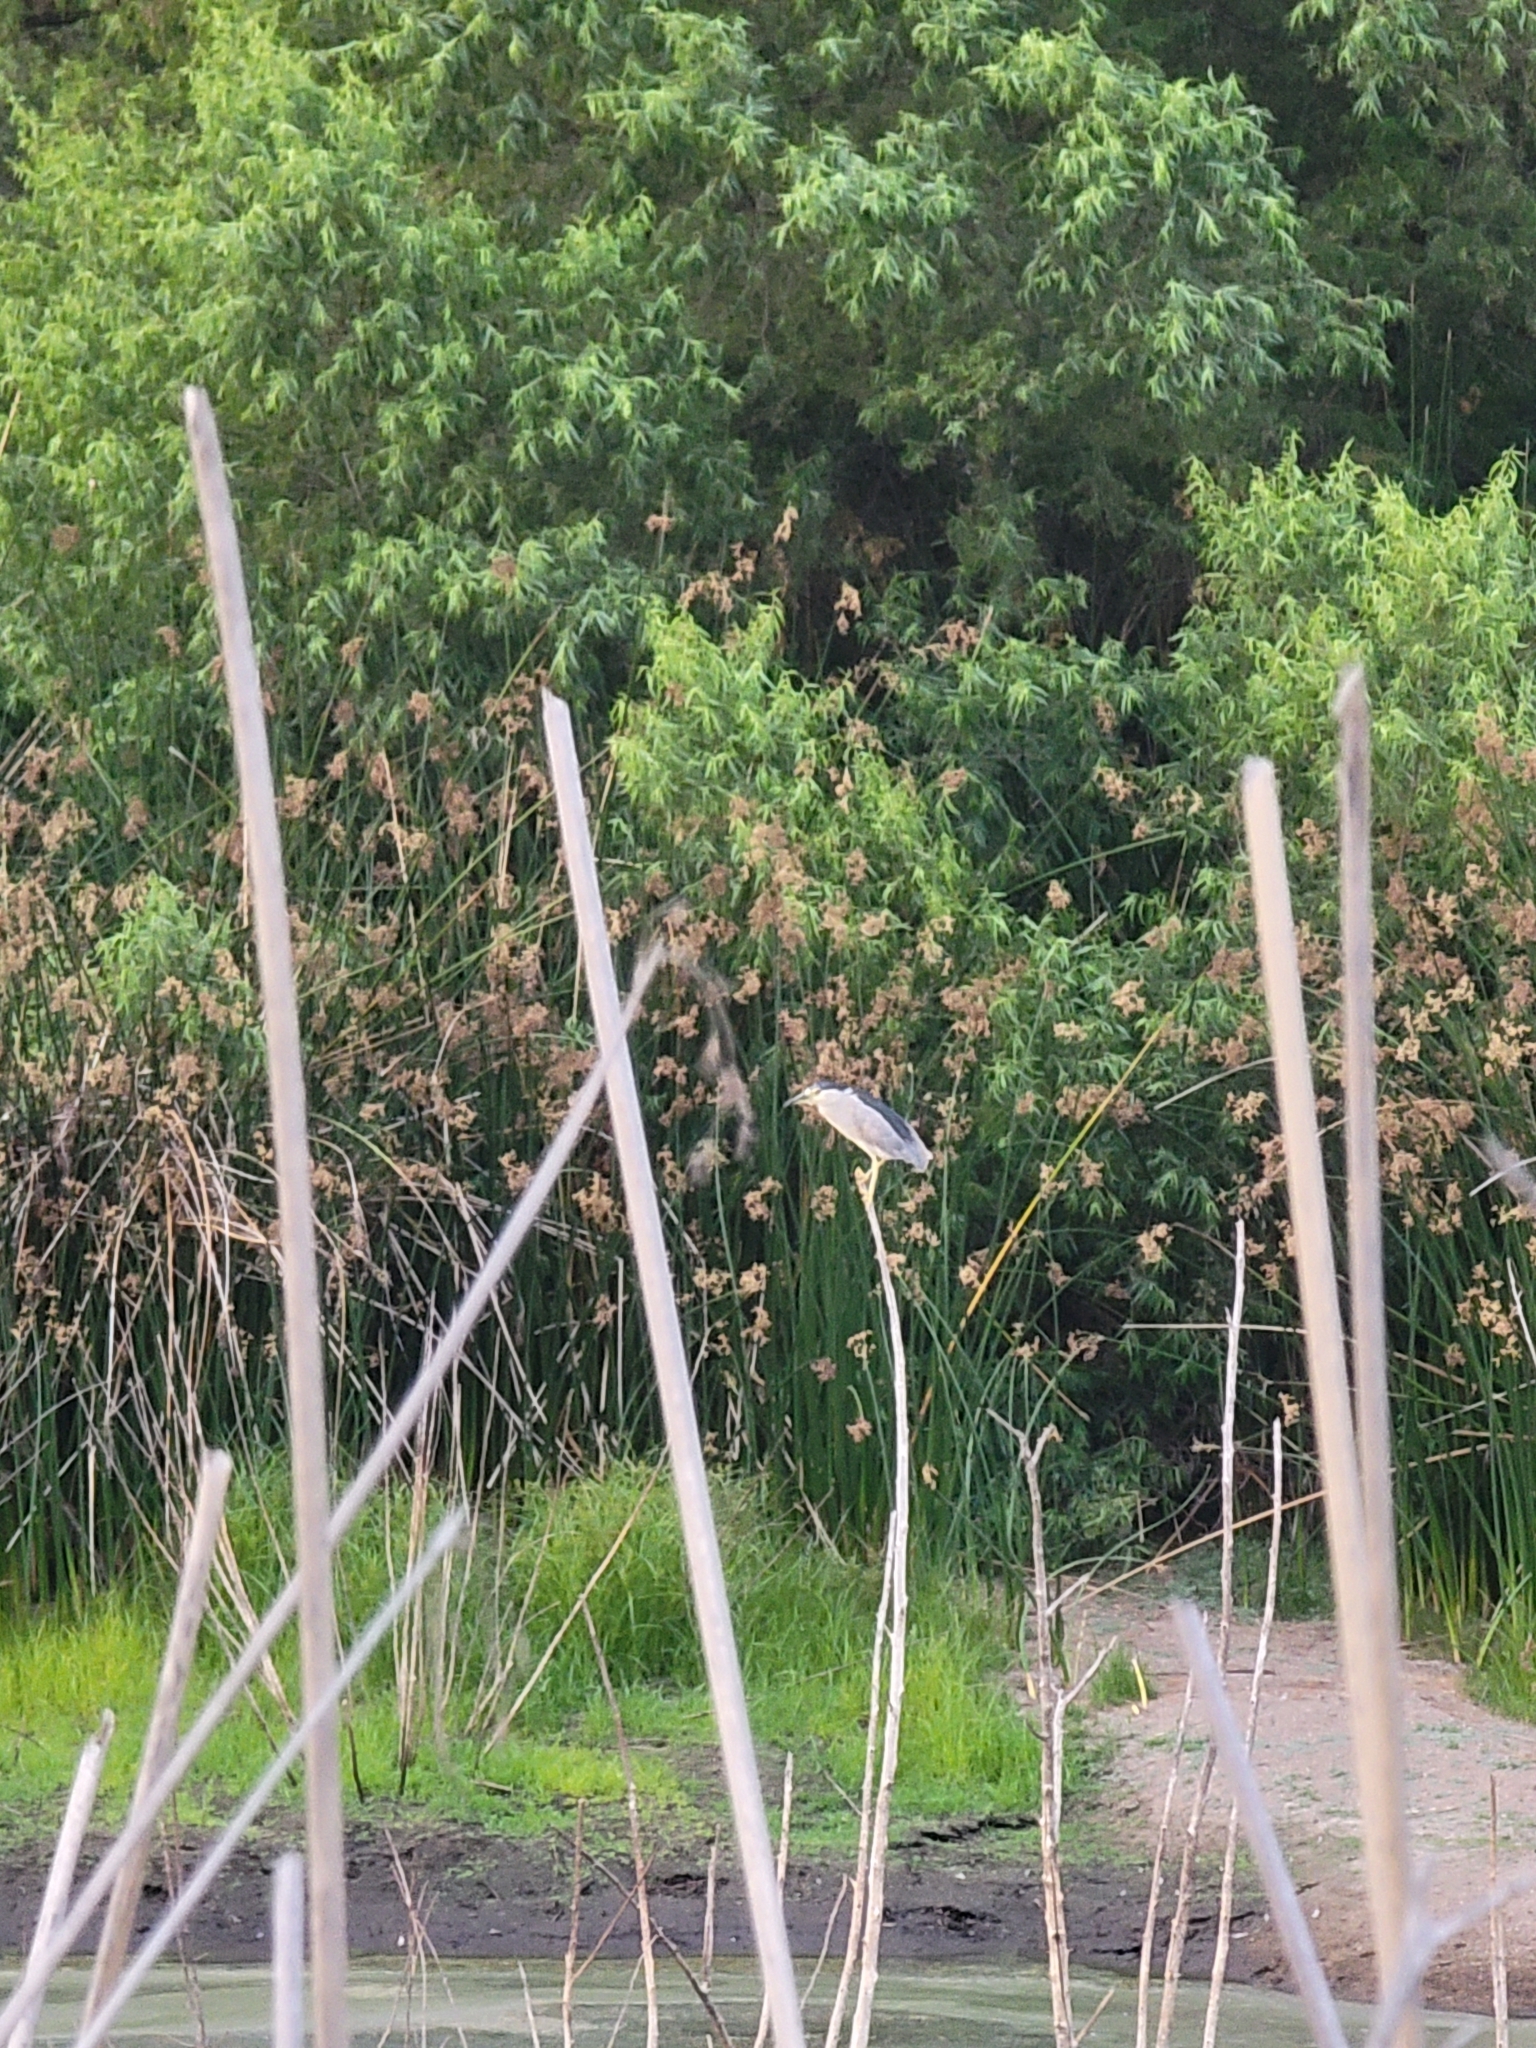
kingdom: Animalia
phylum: Chordata
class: Aves
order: Pelecaniformes
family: Ardeidae
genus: Nycticorax
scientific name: Nycticorax nycticorax
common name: Black-crowned night heron
